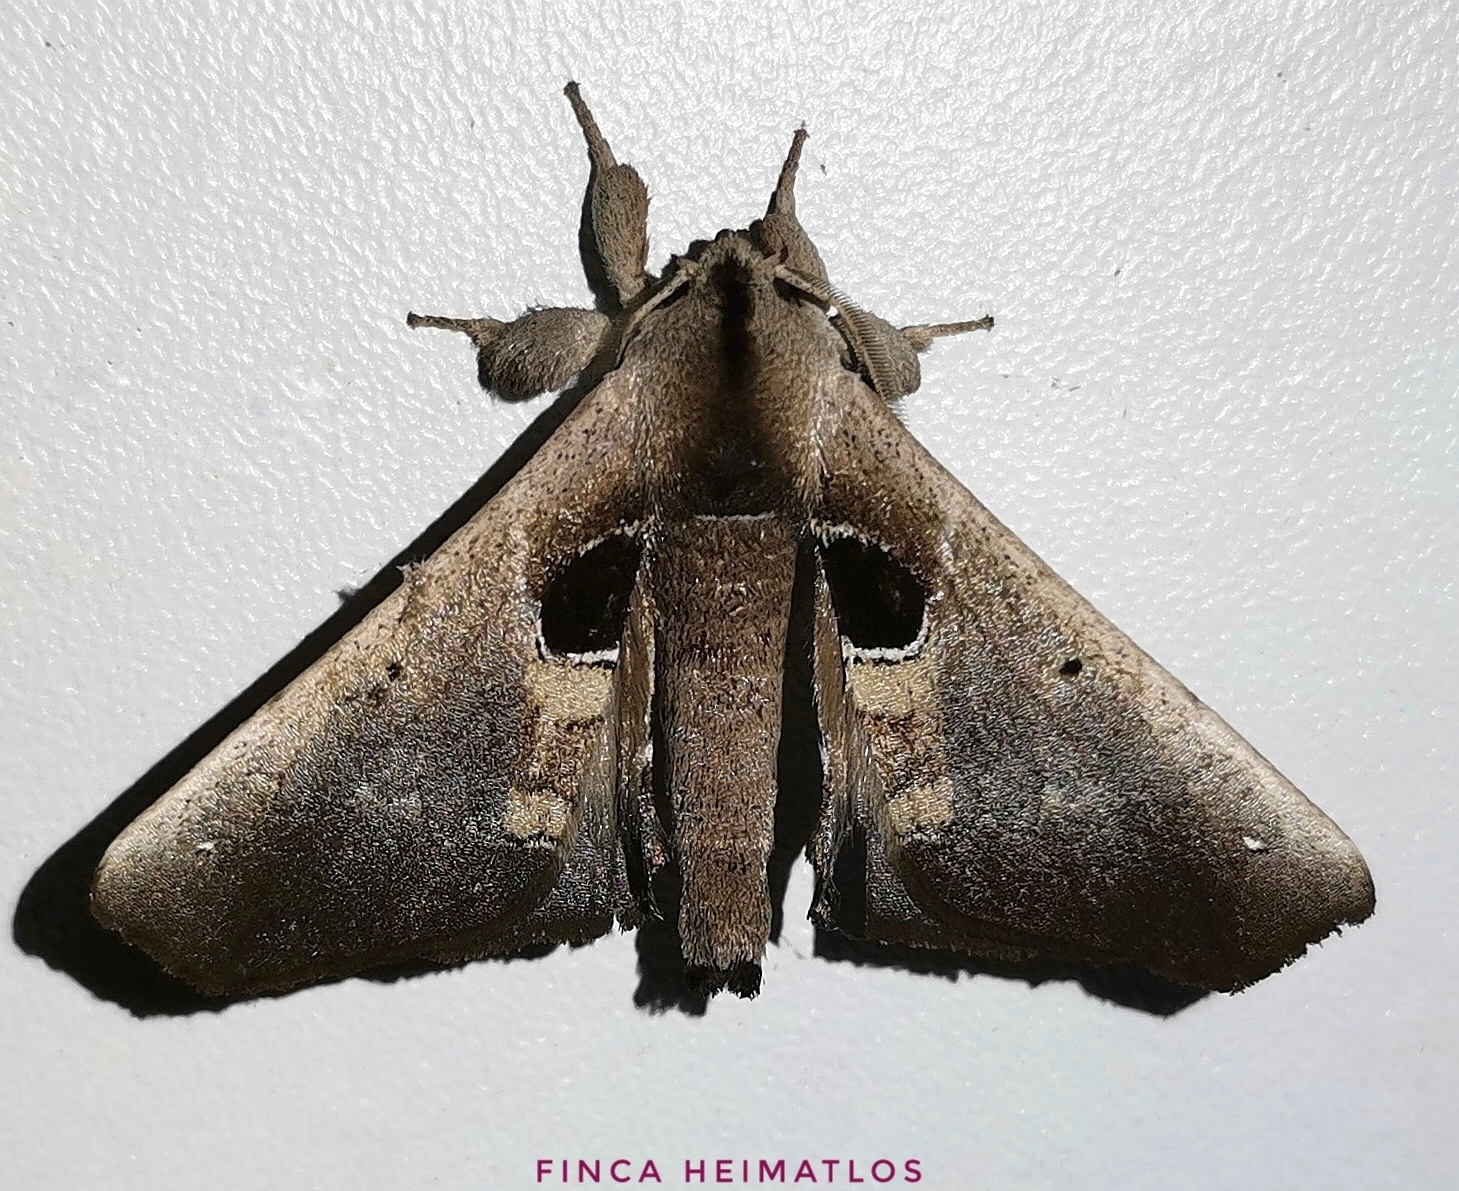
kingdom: Animalia
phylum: Arthropoda
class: Insecta
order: Lepidoptera
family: Apatelodidae
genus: Hygrochroa
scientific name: Hygrochroa Apatelodes cirna
